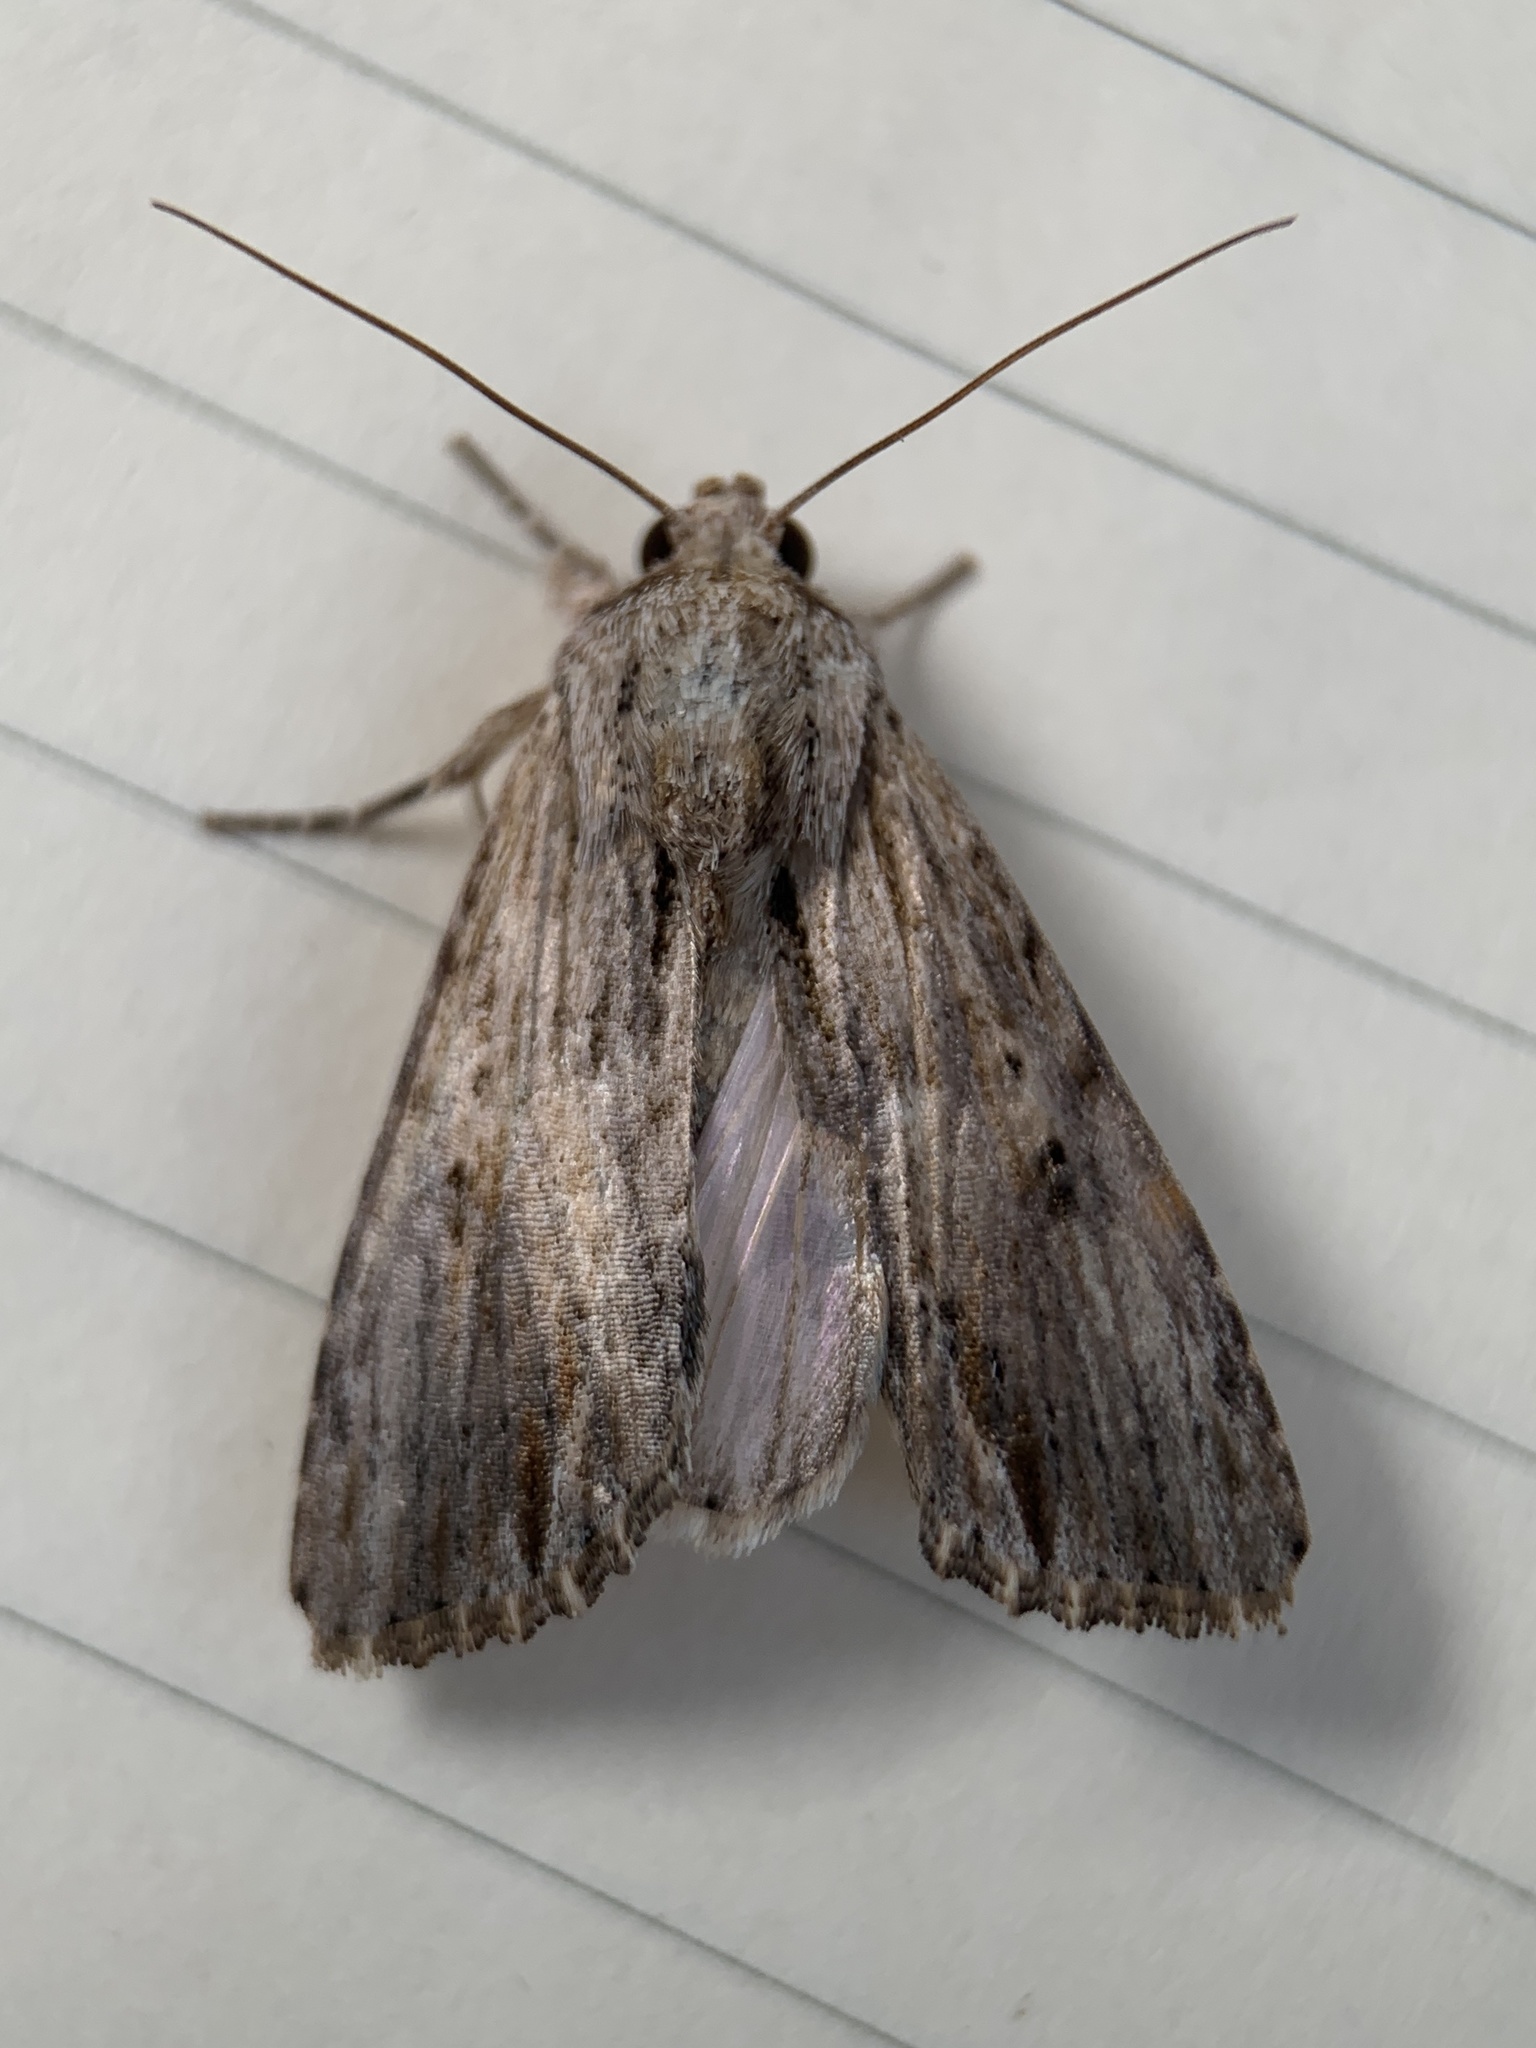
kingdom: Animalia
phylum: Arthropoda
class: Insecta
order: Lepidoptera
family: Noctuidae
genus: Spodoptera
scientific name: Spodoptera eridania
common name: Southern army worm
